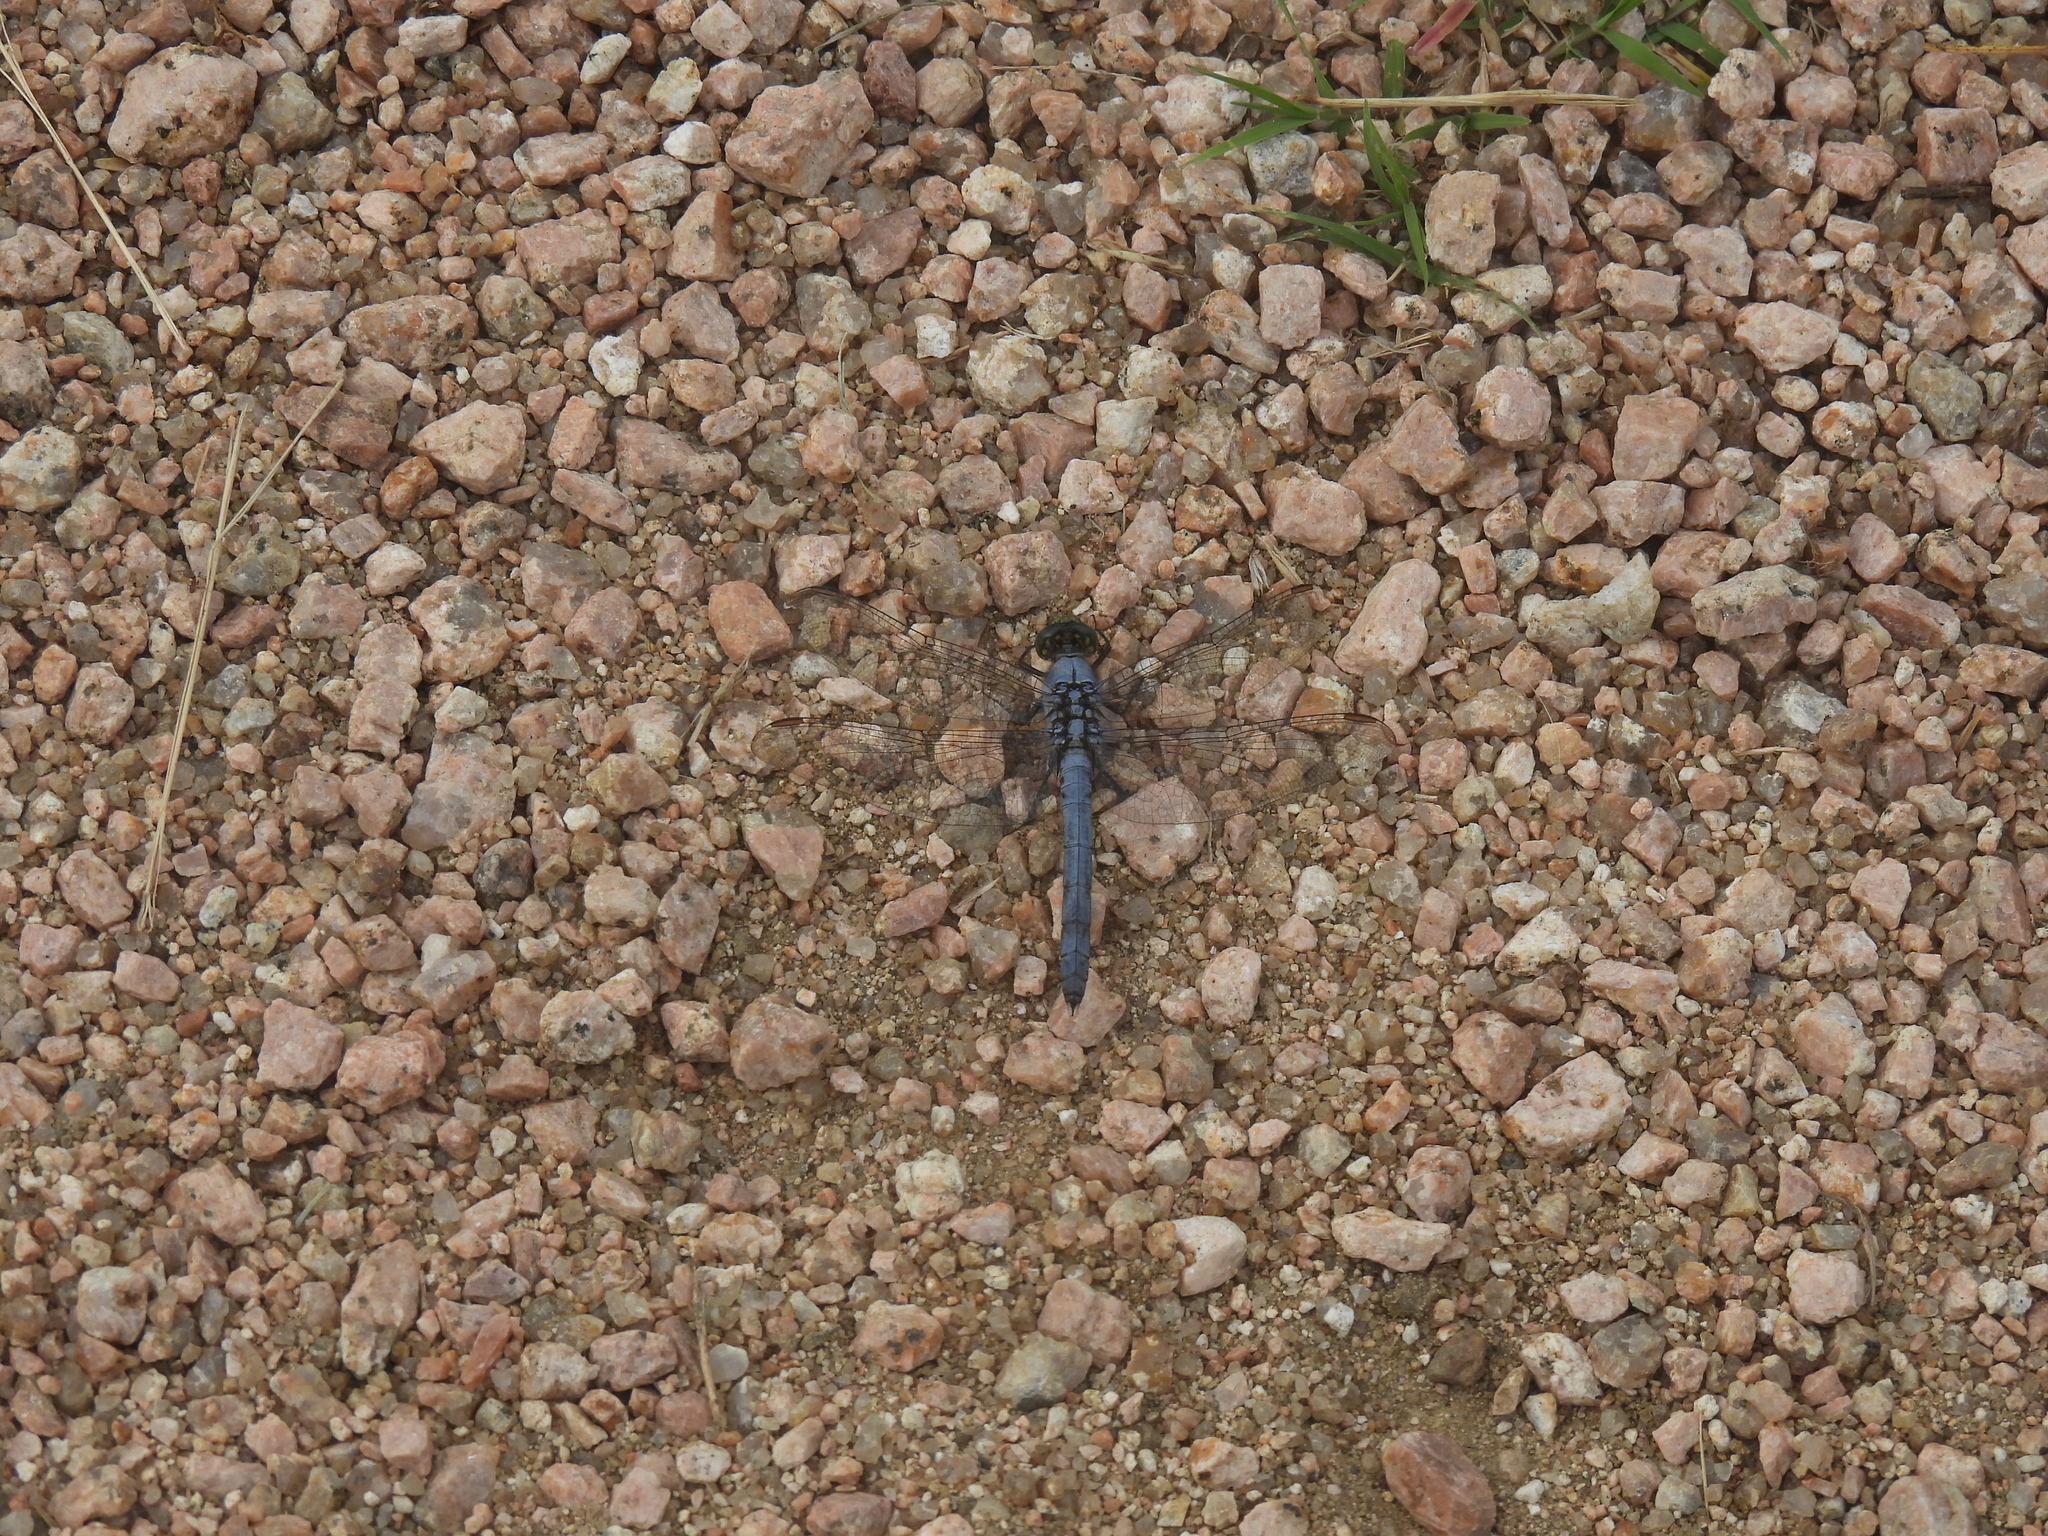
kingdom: Animalia
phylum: Arthropoda
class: Insecta
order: Odonata
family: Libellulidae
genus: Erythemis
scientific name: Erythemis simplicicollis
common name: Eastern pondhawk
